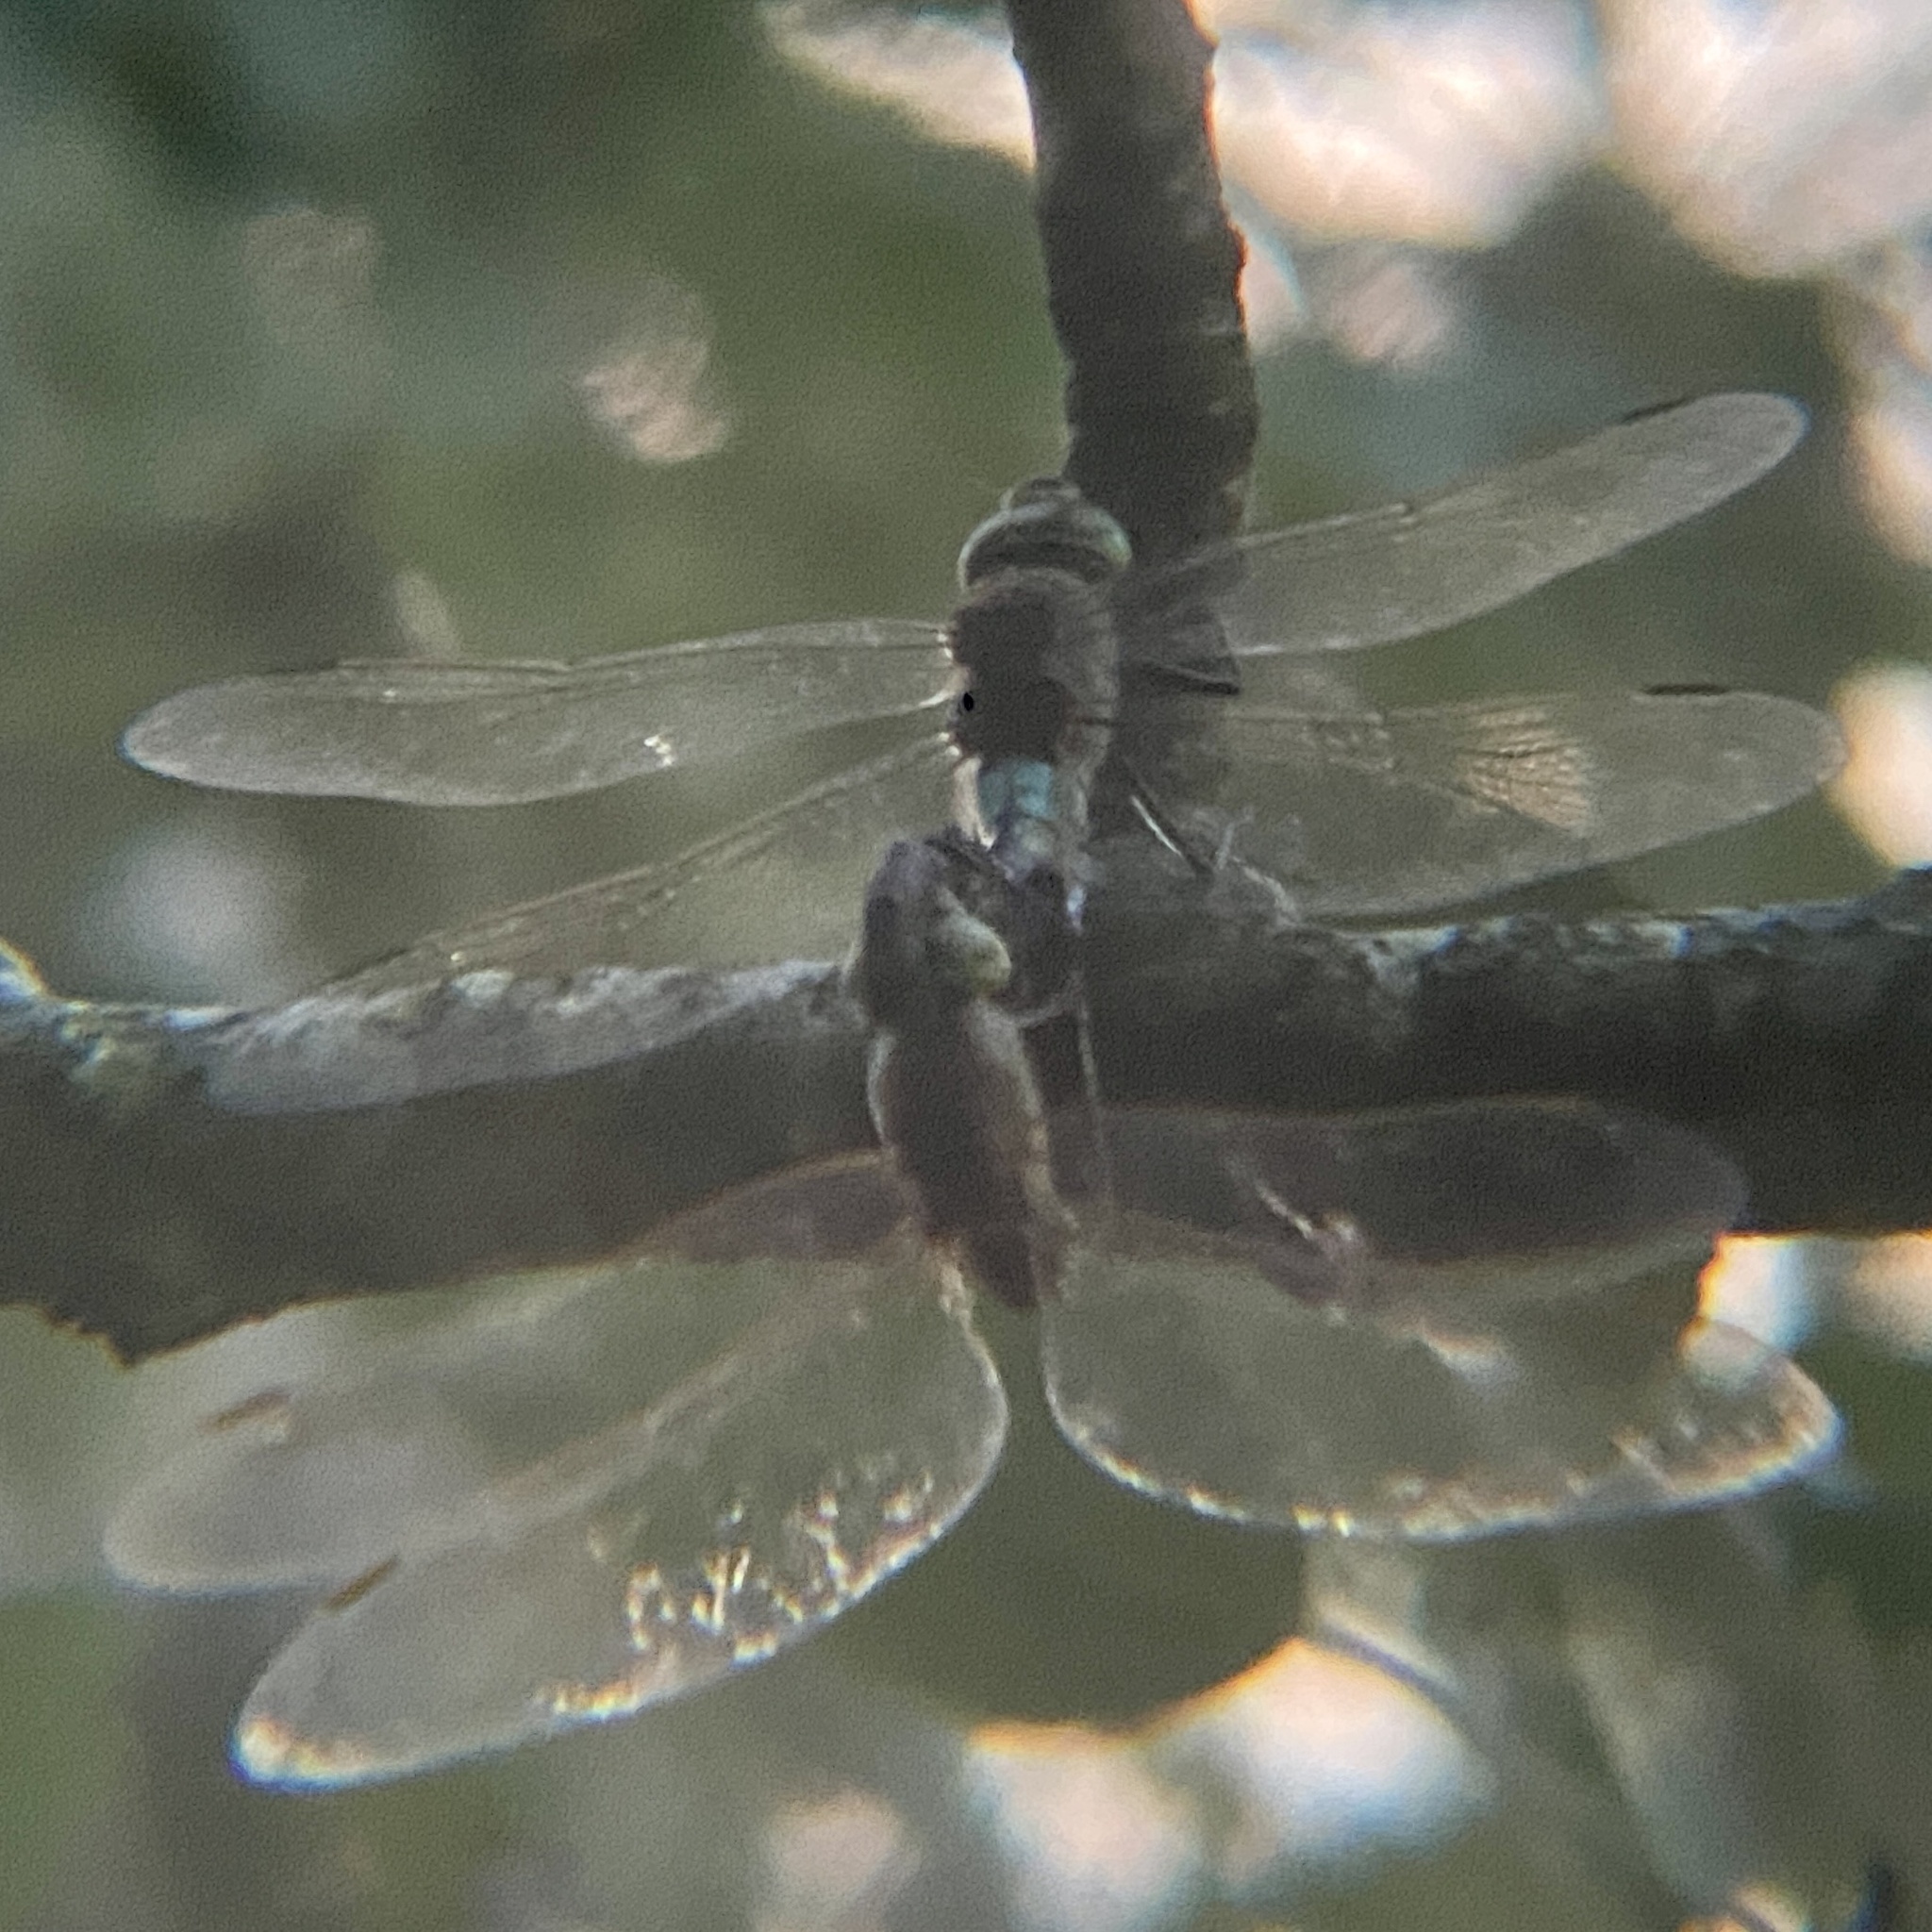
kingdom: Animalia
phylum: Arthropoda
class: Insecta
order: Odonata
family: Aeshnidae
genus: Anax
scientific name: Anax parthenope
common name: Lesser emperor
